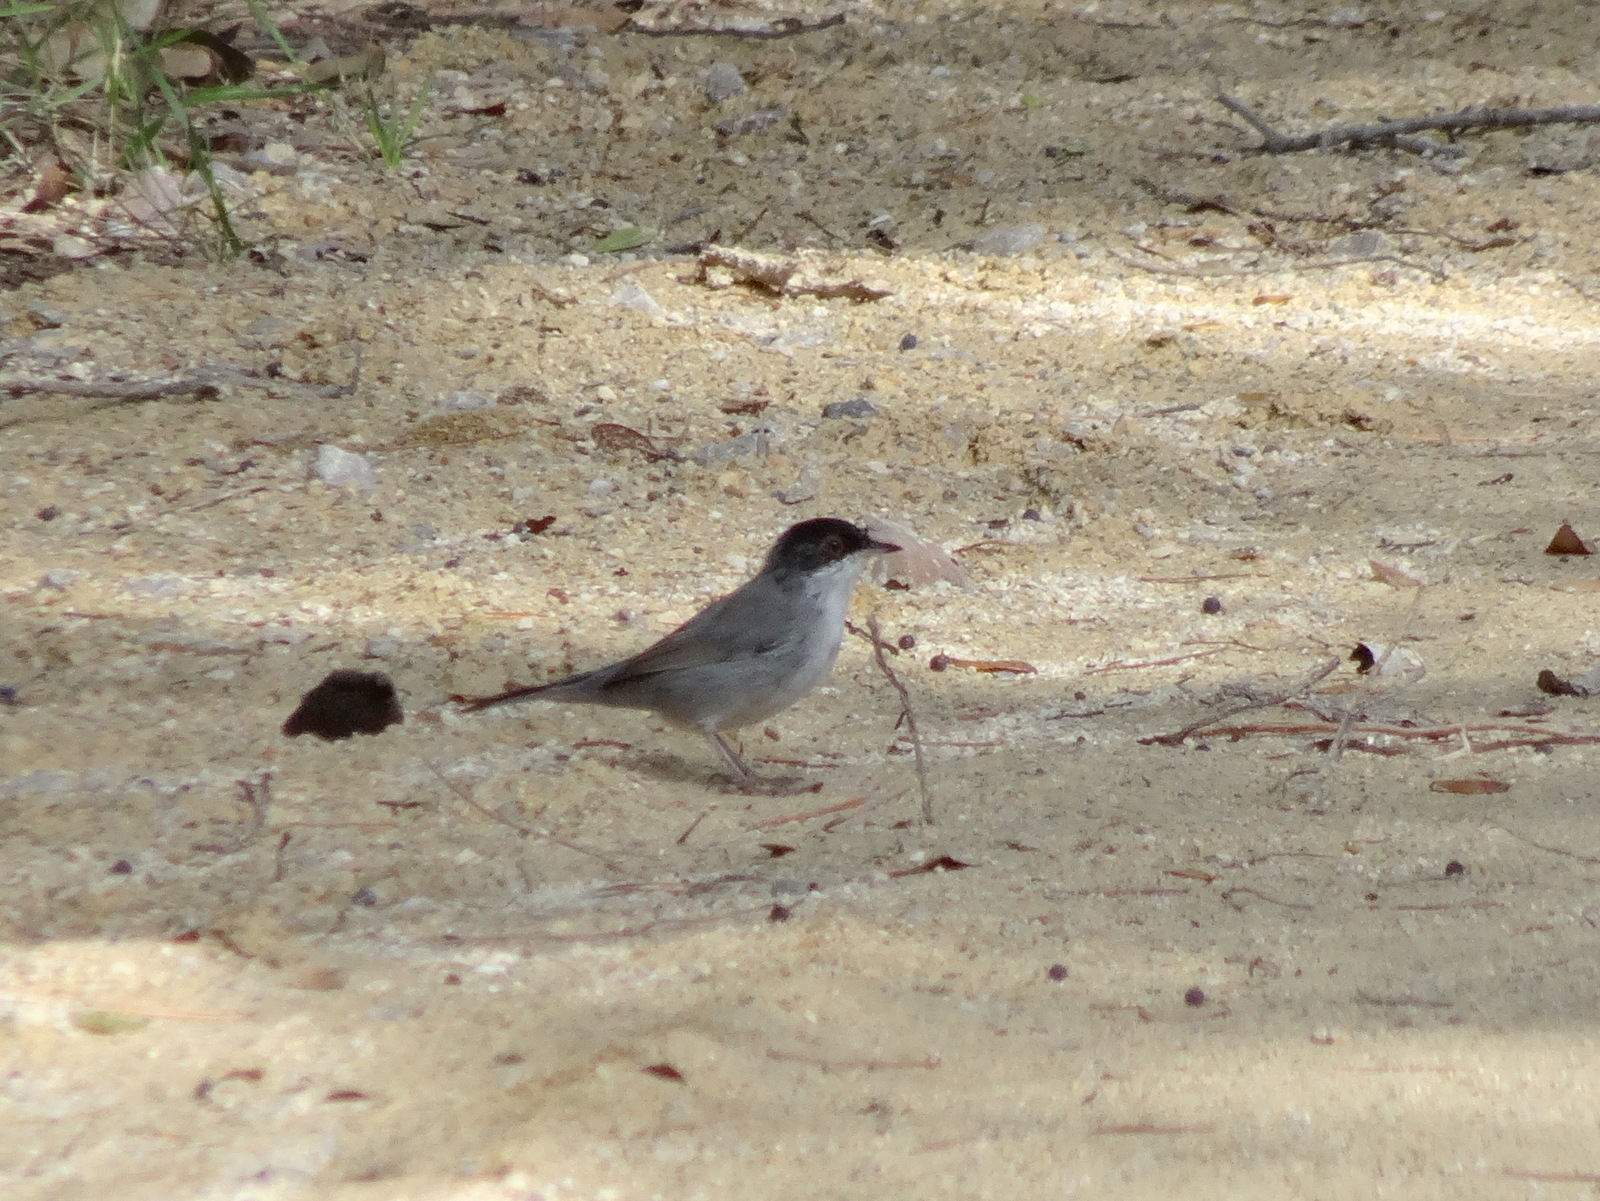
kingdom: Animalia
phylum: Chordata
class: Aves
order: Passeriformes
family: Sylviidae
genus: Curruca
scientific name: Curruca melanocephala
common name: Sardinian warbler
